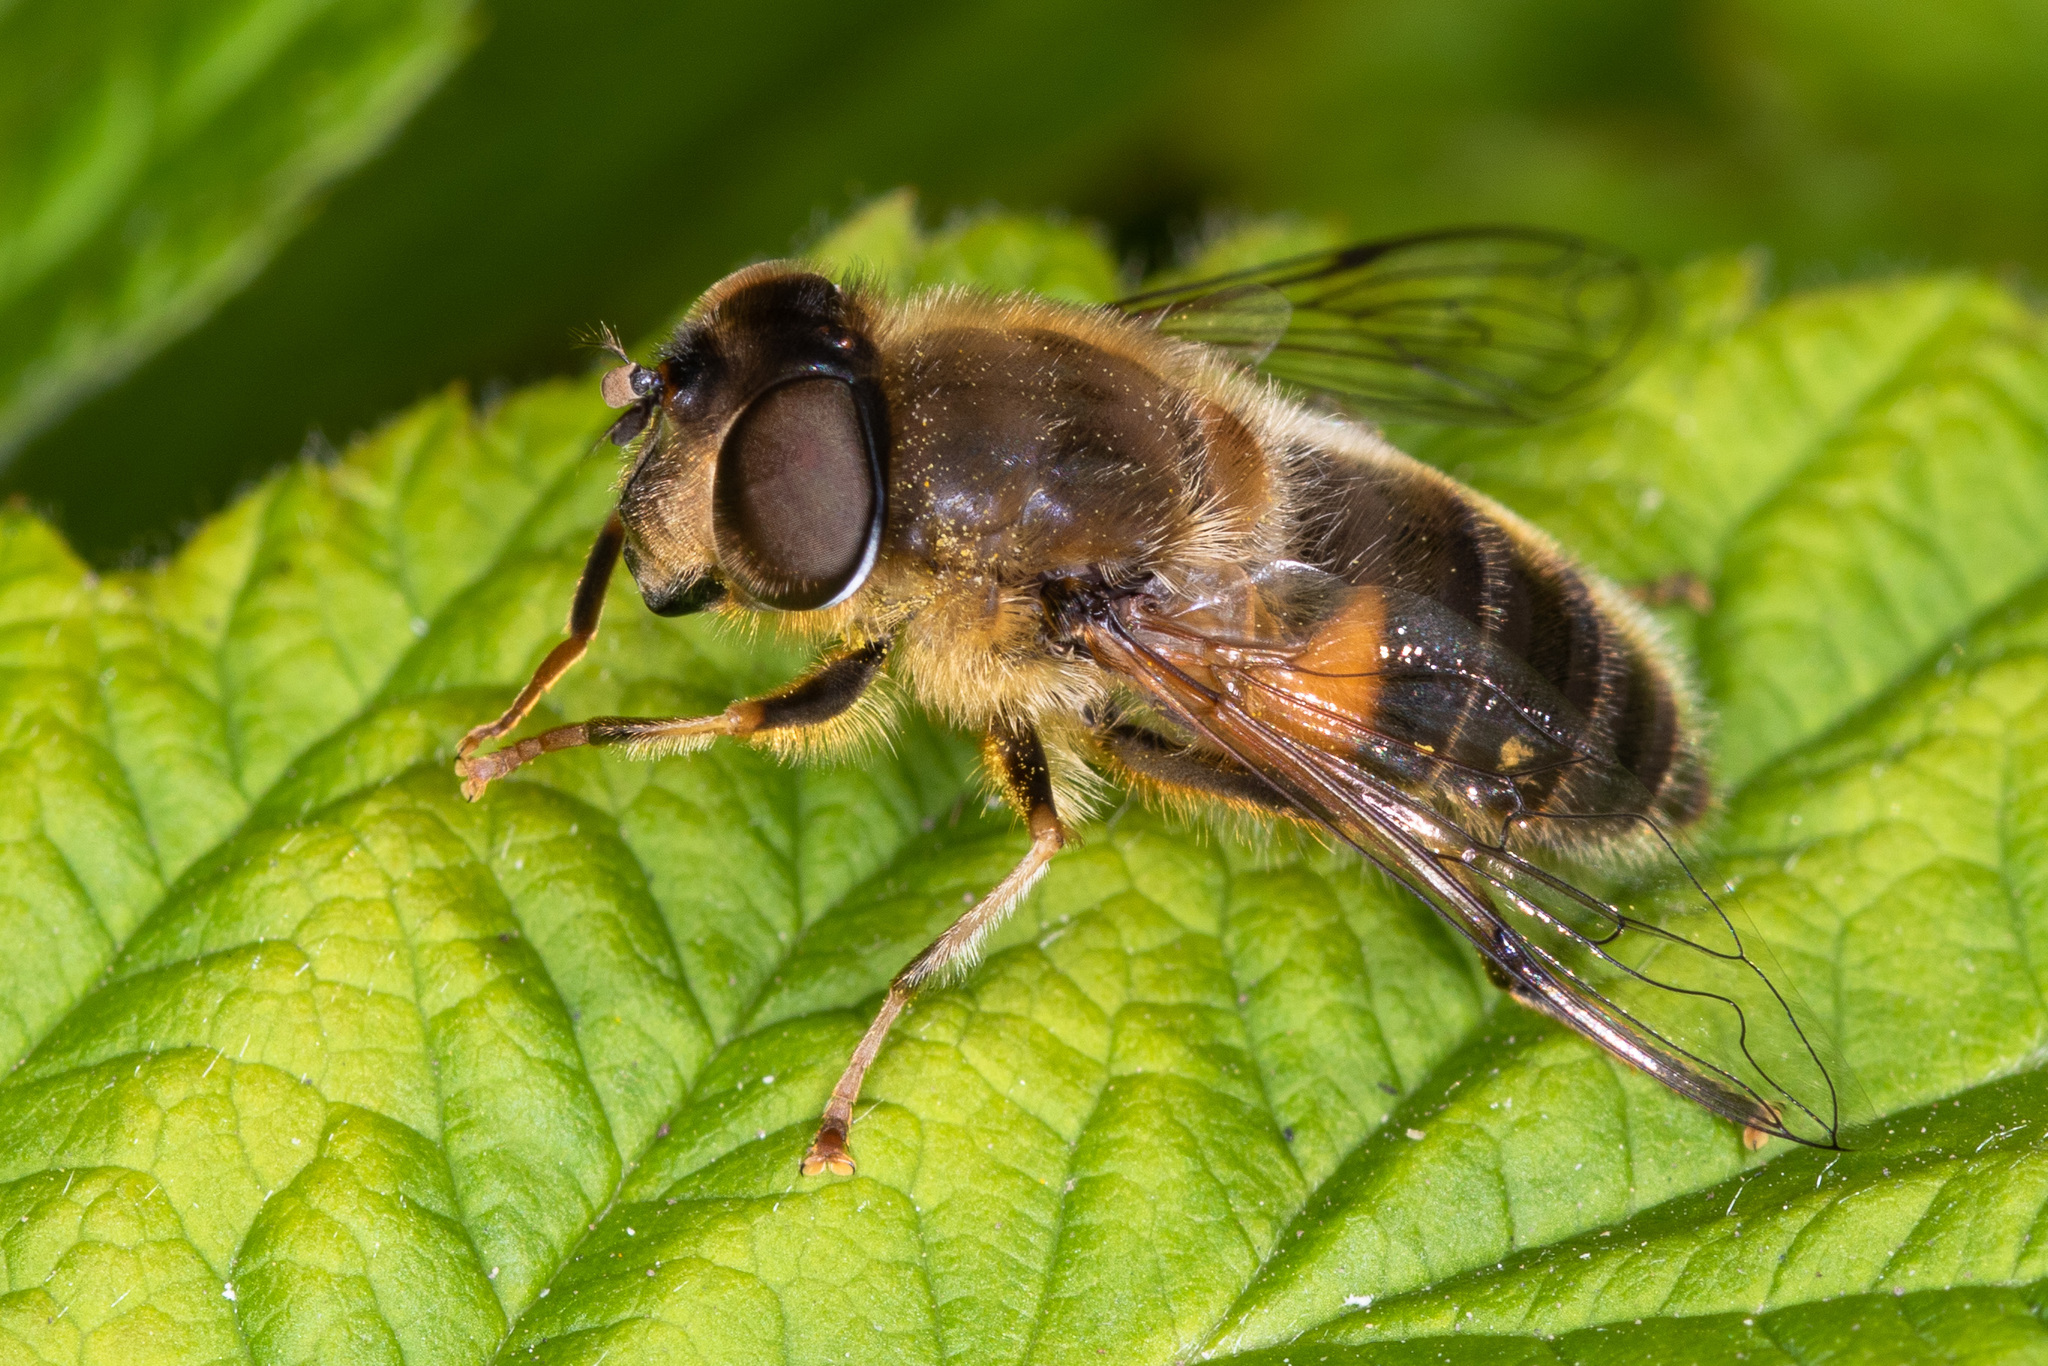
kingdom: Animalia
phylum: Arthropoda
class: Insecta
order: Diptera
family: Syrphidae
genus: Eristalis
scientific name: Eristalis pertinax
